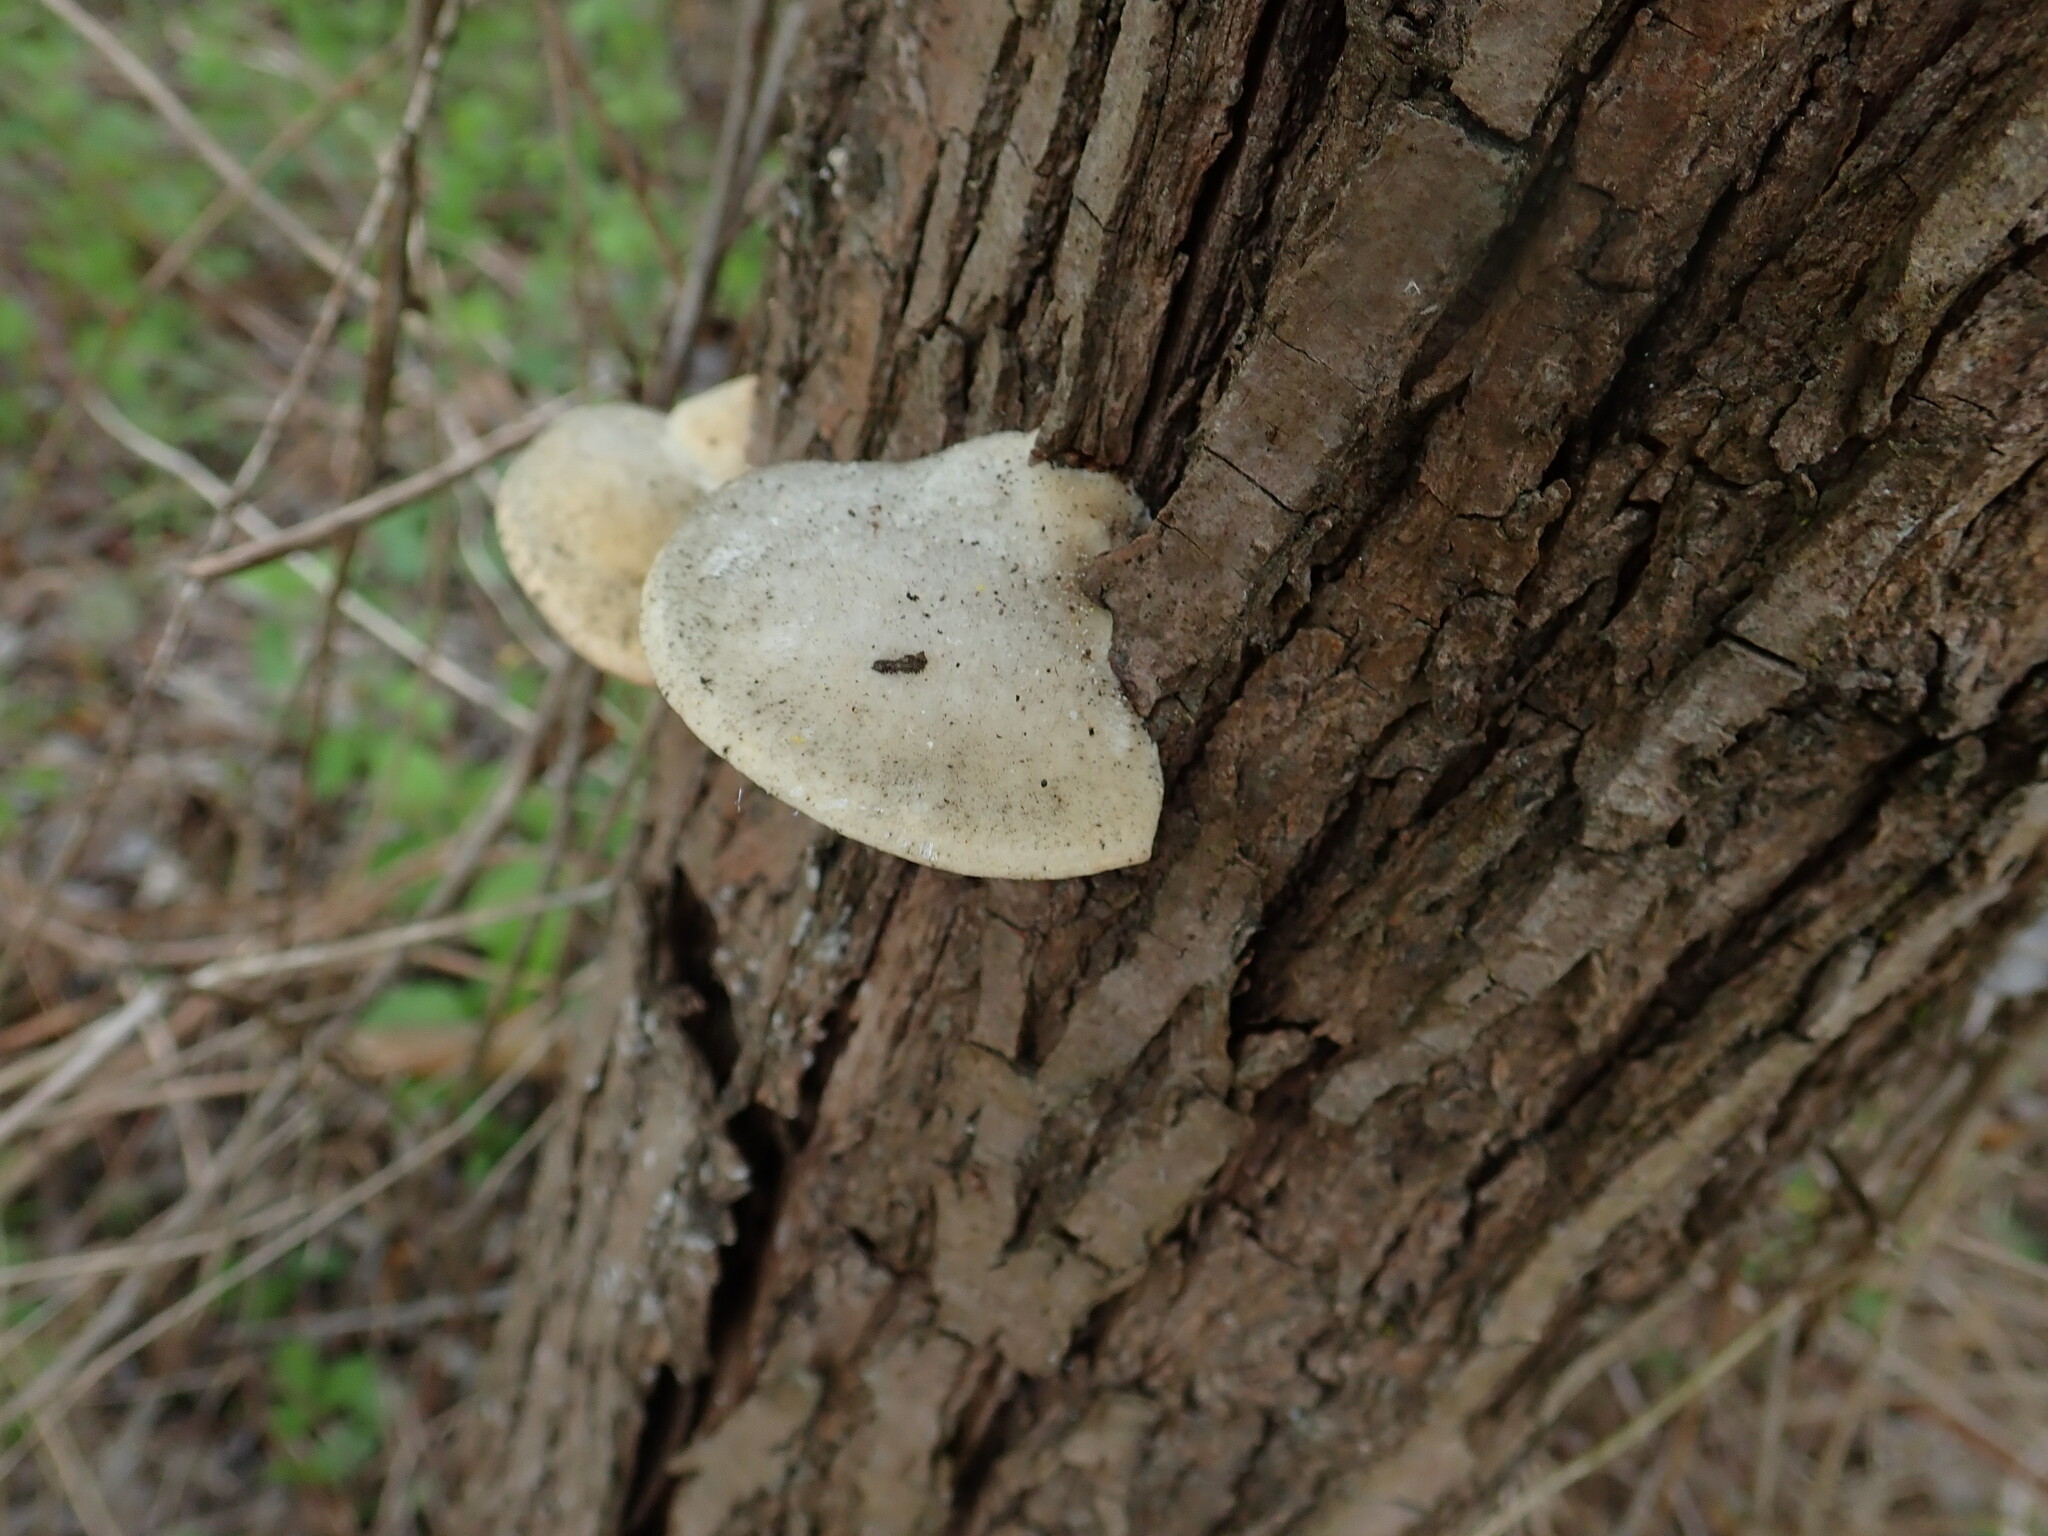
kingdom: Fungi
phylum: Basidiomycota
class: Agaricomycetes
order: Polyporales
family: Polyporaceae
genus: Trametes
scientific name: Trametes suaveolens
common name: Fragrant bracket
